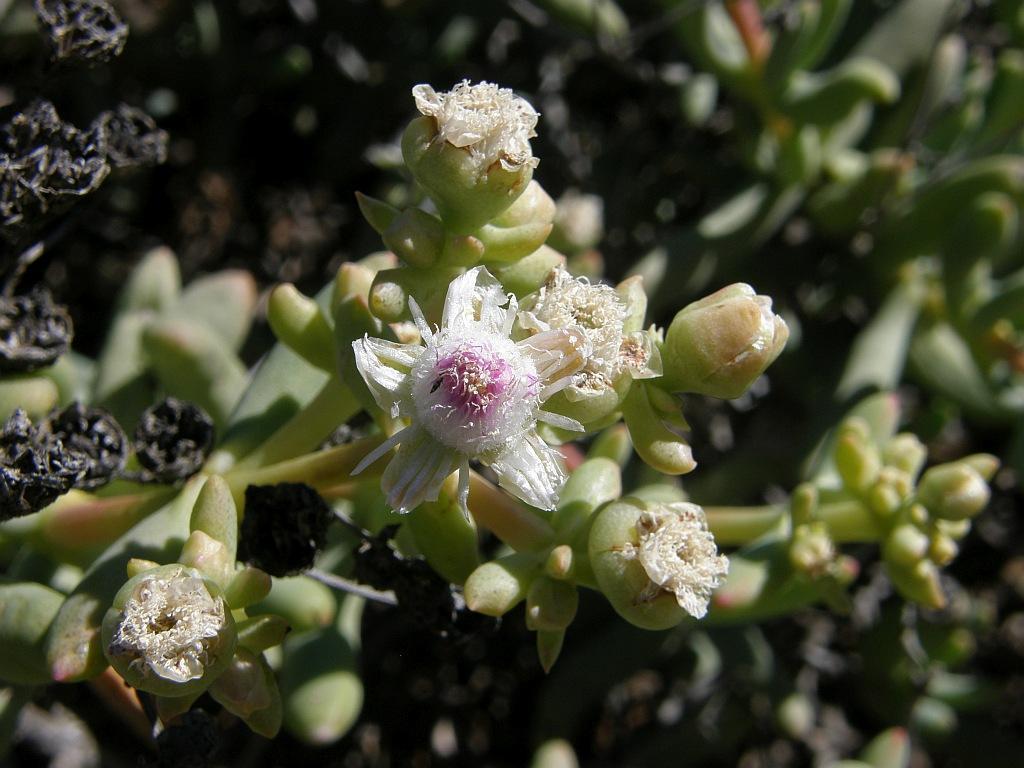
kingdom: Plantae
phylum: Tracheophyta
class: Magnoliopsida
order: Caryophyllales
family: Aizoaceae
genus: Stoeberia
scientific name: Stoeberia frutescens
